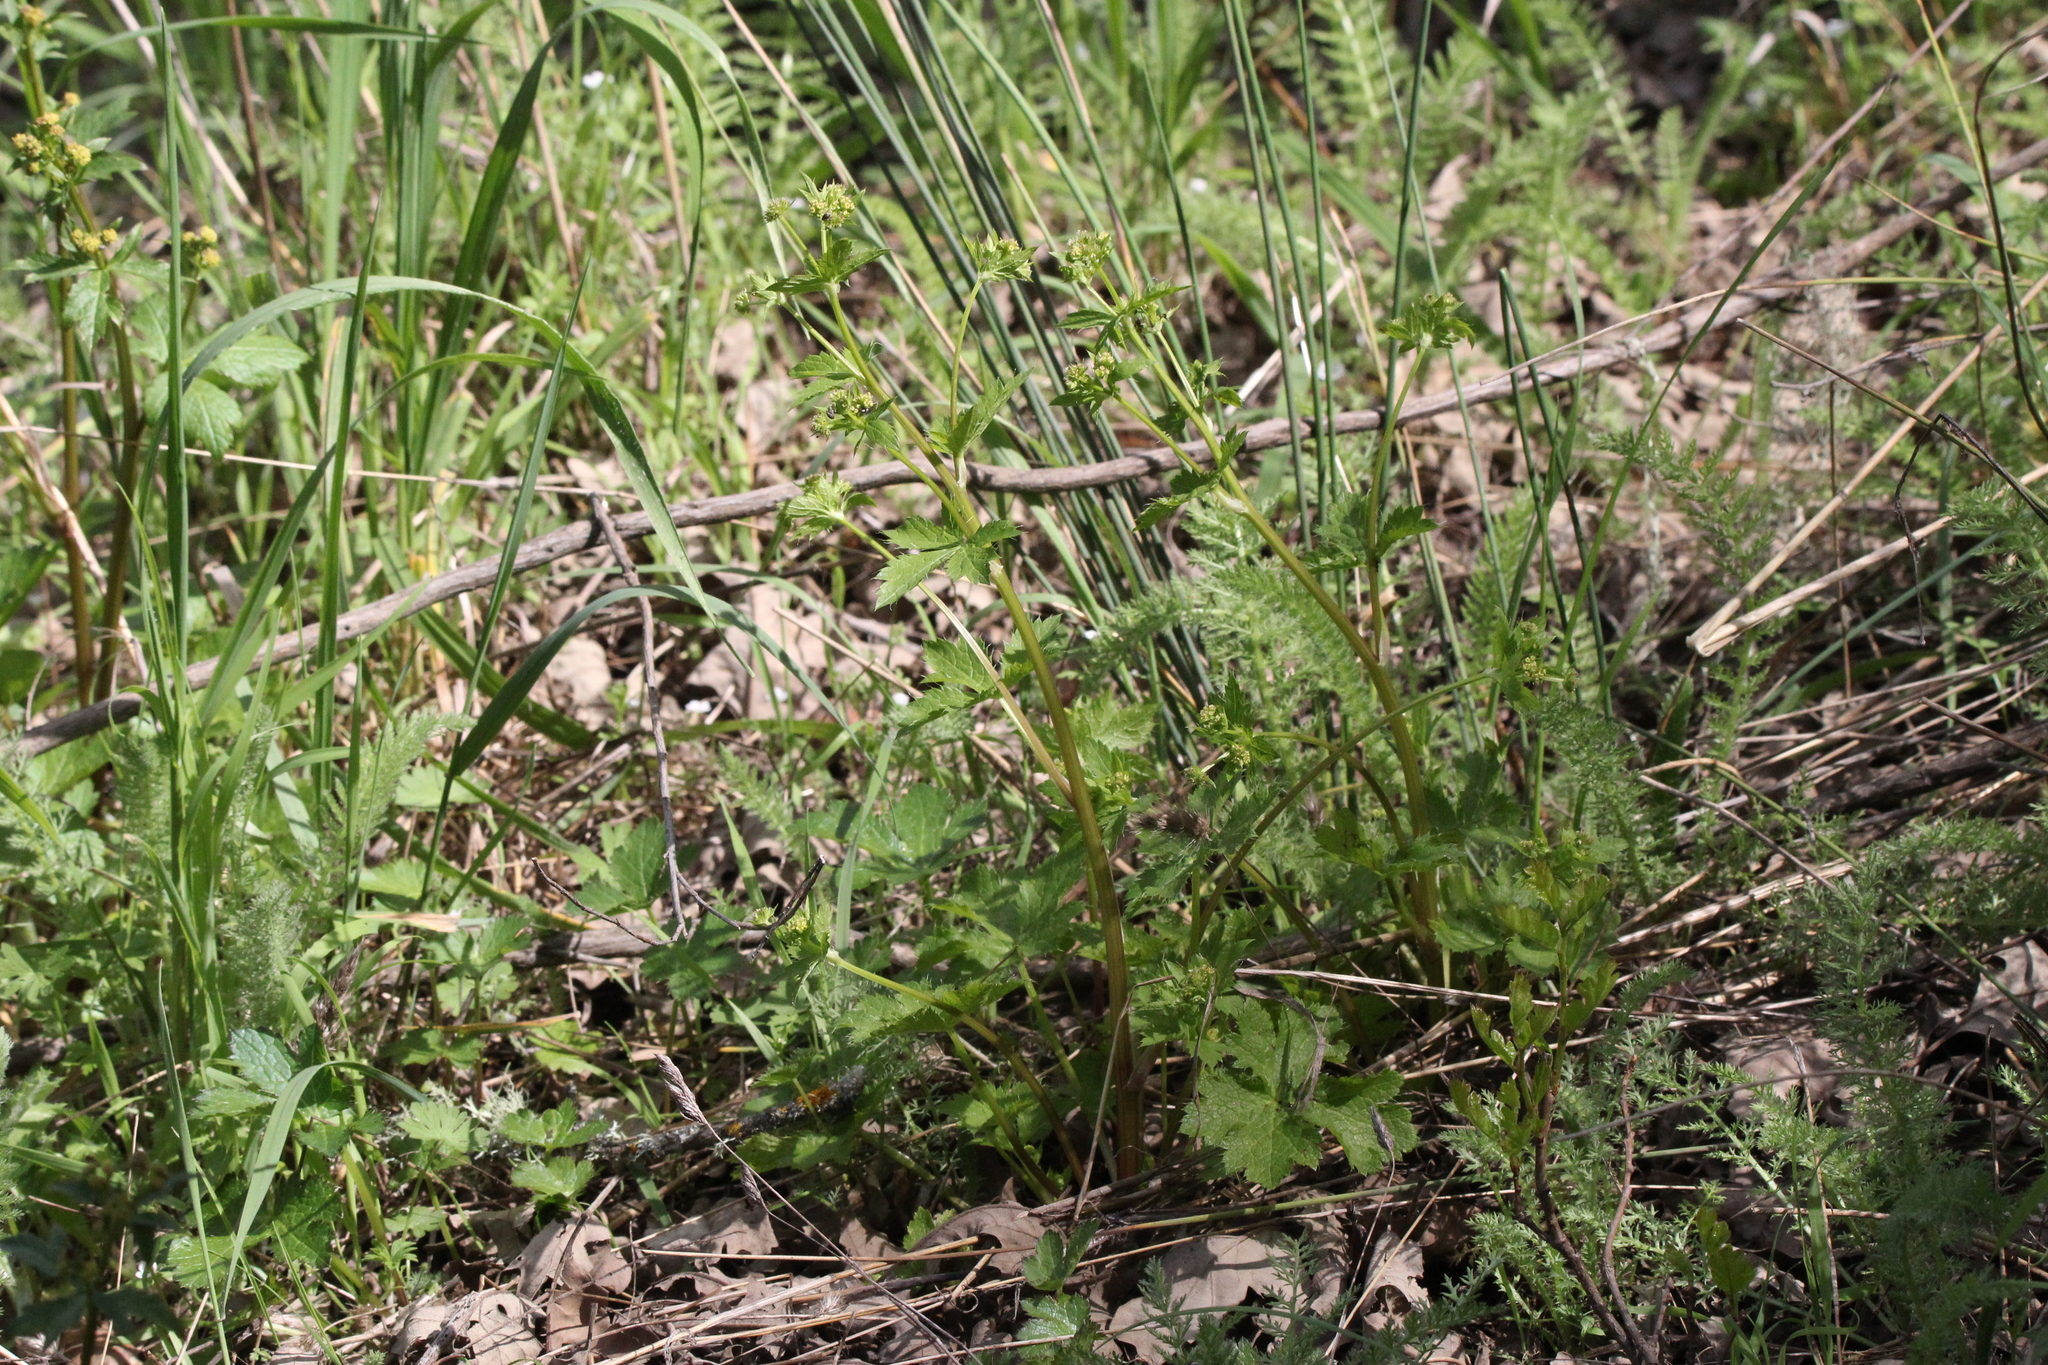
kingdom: Plantae
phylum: Tracheophyta
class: Magnoliopsida
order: Apiales
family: Apiaceae
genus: Sanicula
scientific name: Sanicula crassicaulis
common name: Western snakeroot
